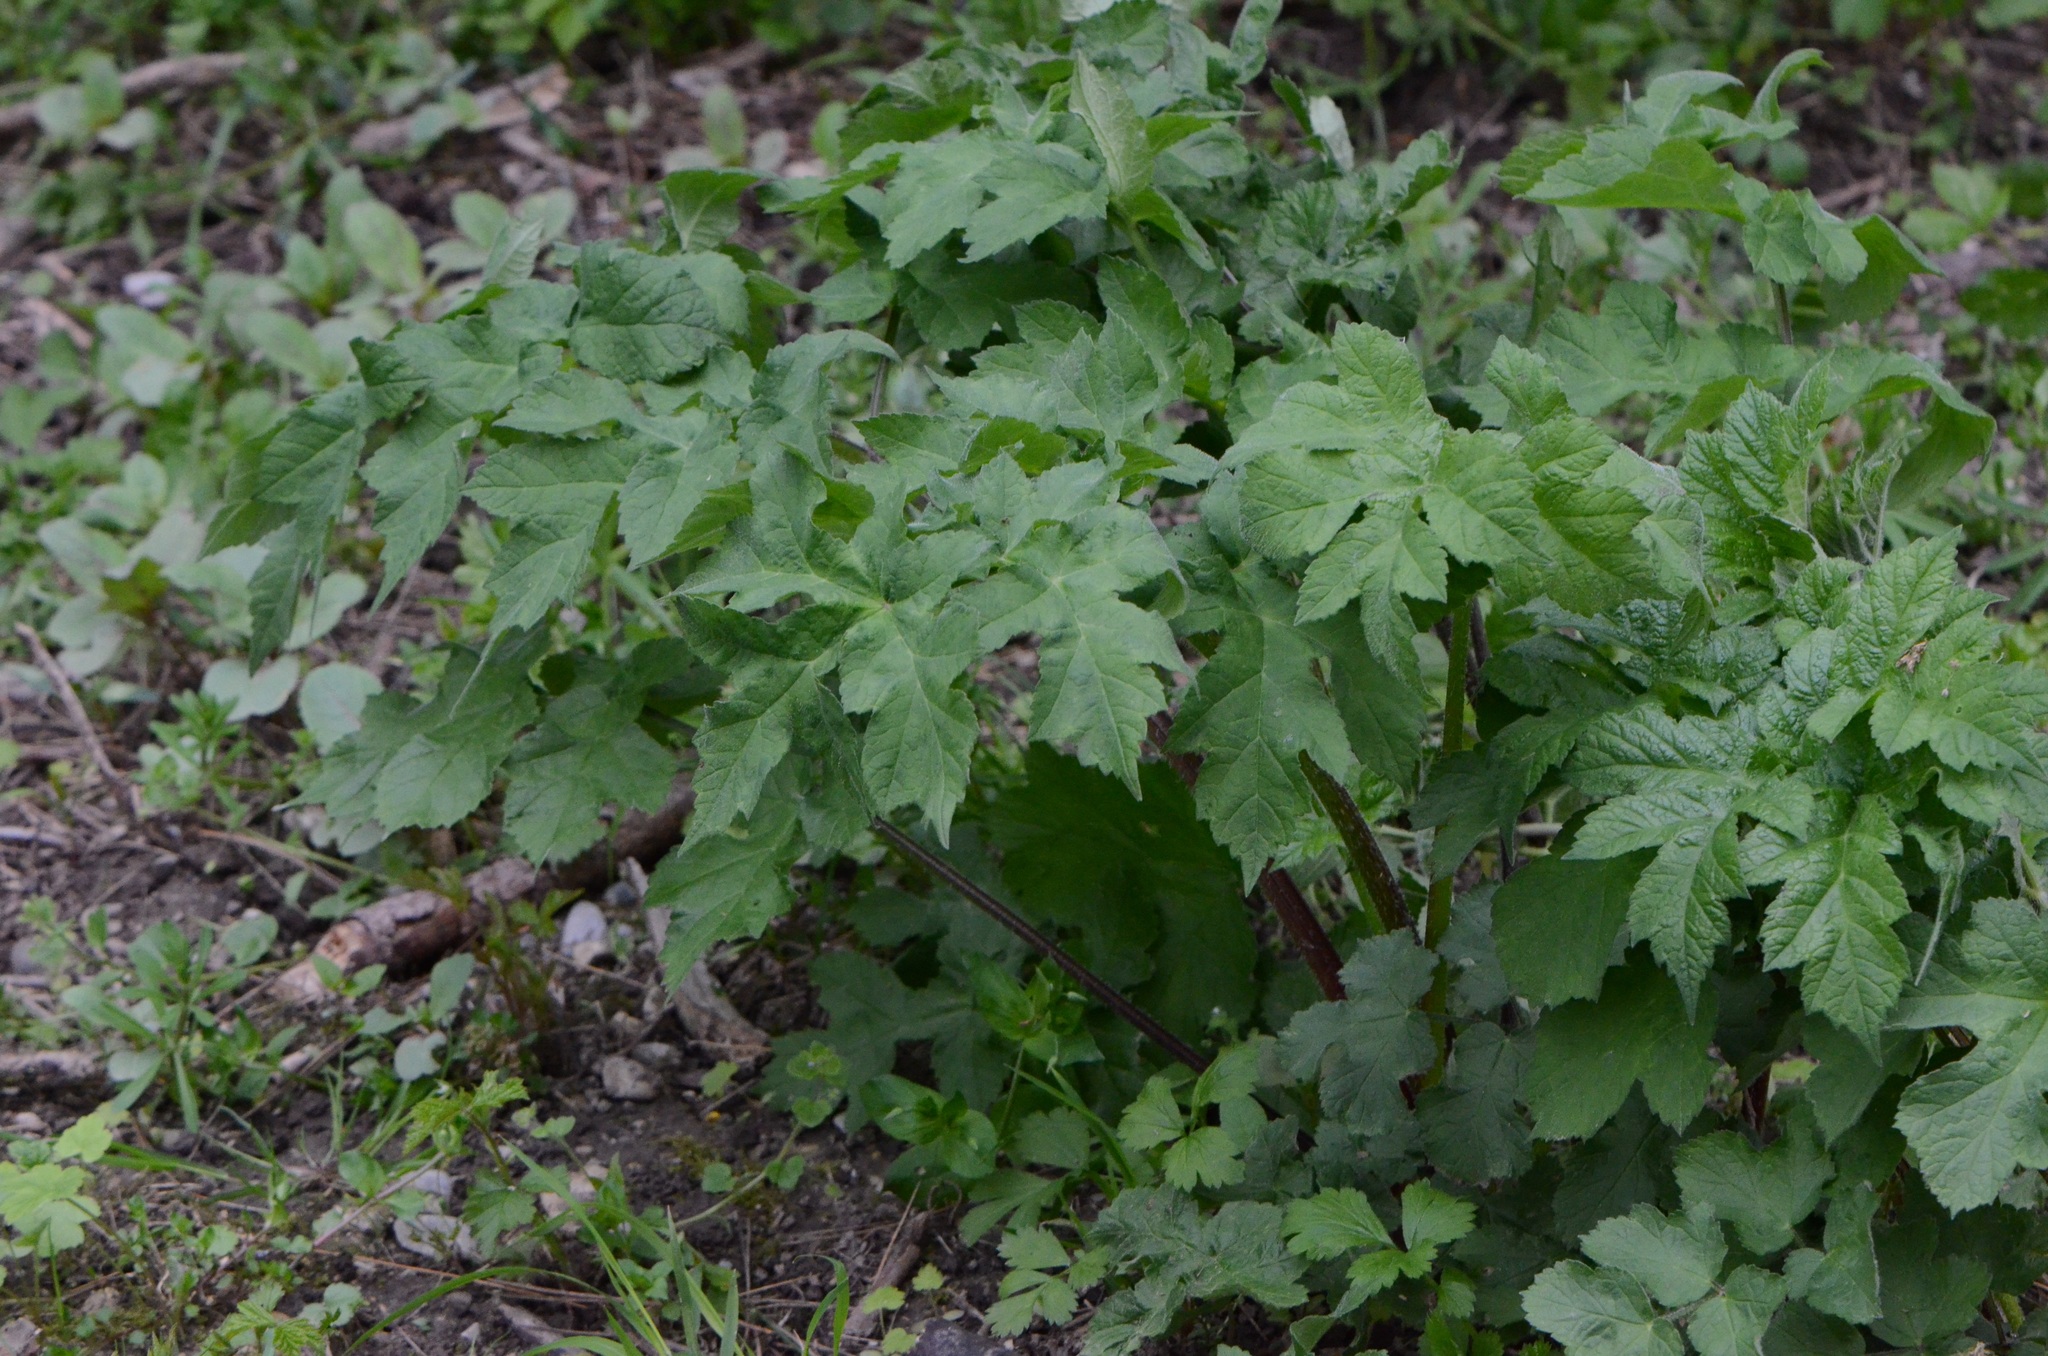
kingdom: Plantae
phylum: Tracheophyta
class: Magnoliopsida
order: Apiales
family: Apiaceae
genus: Heracleum
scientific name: Heracleum sphondylium
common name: Hogweed
